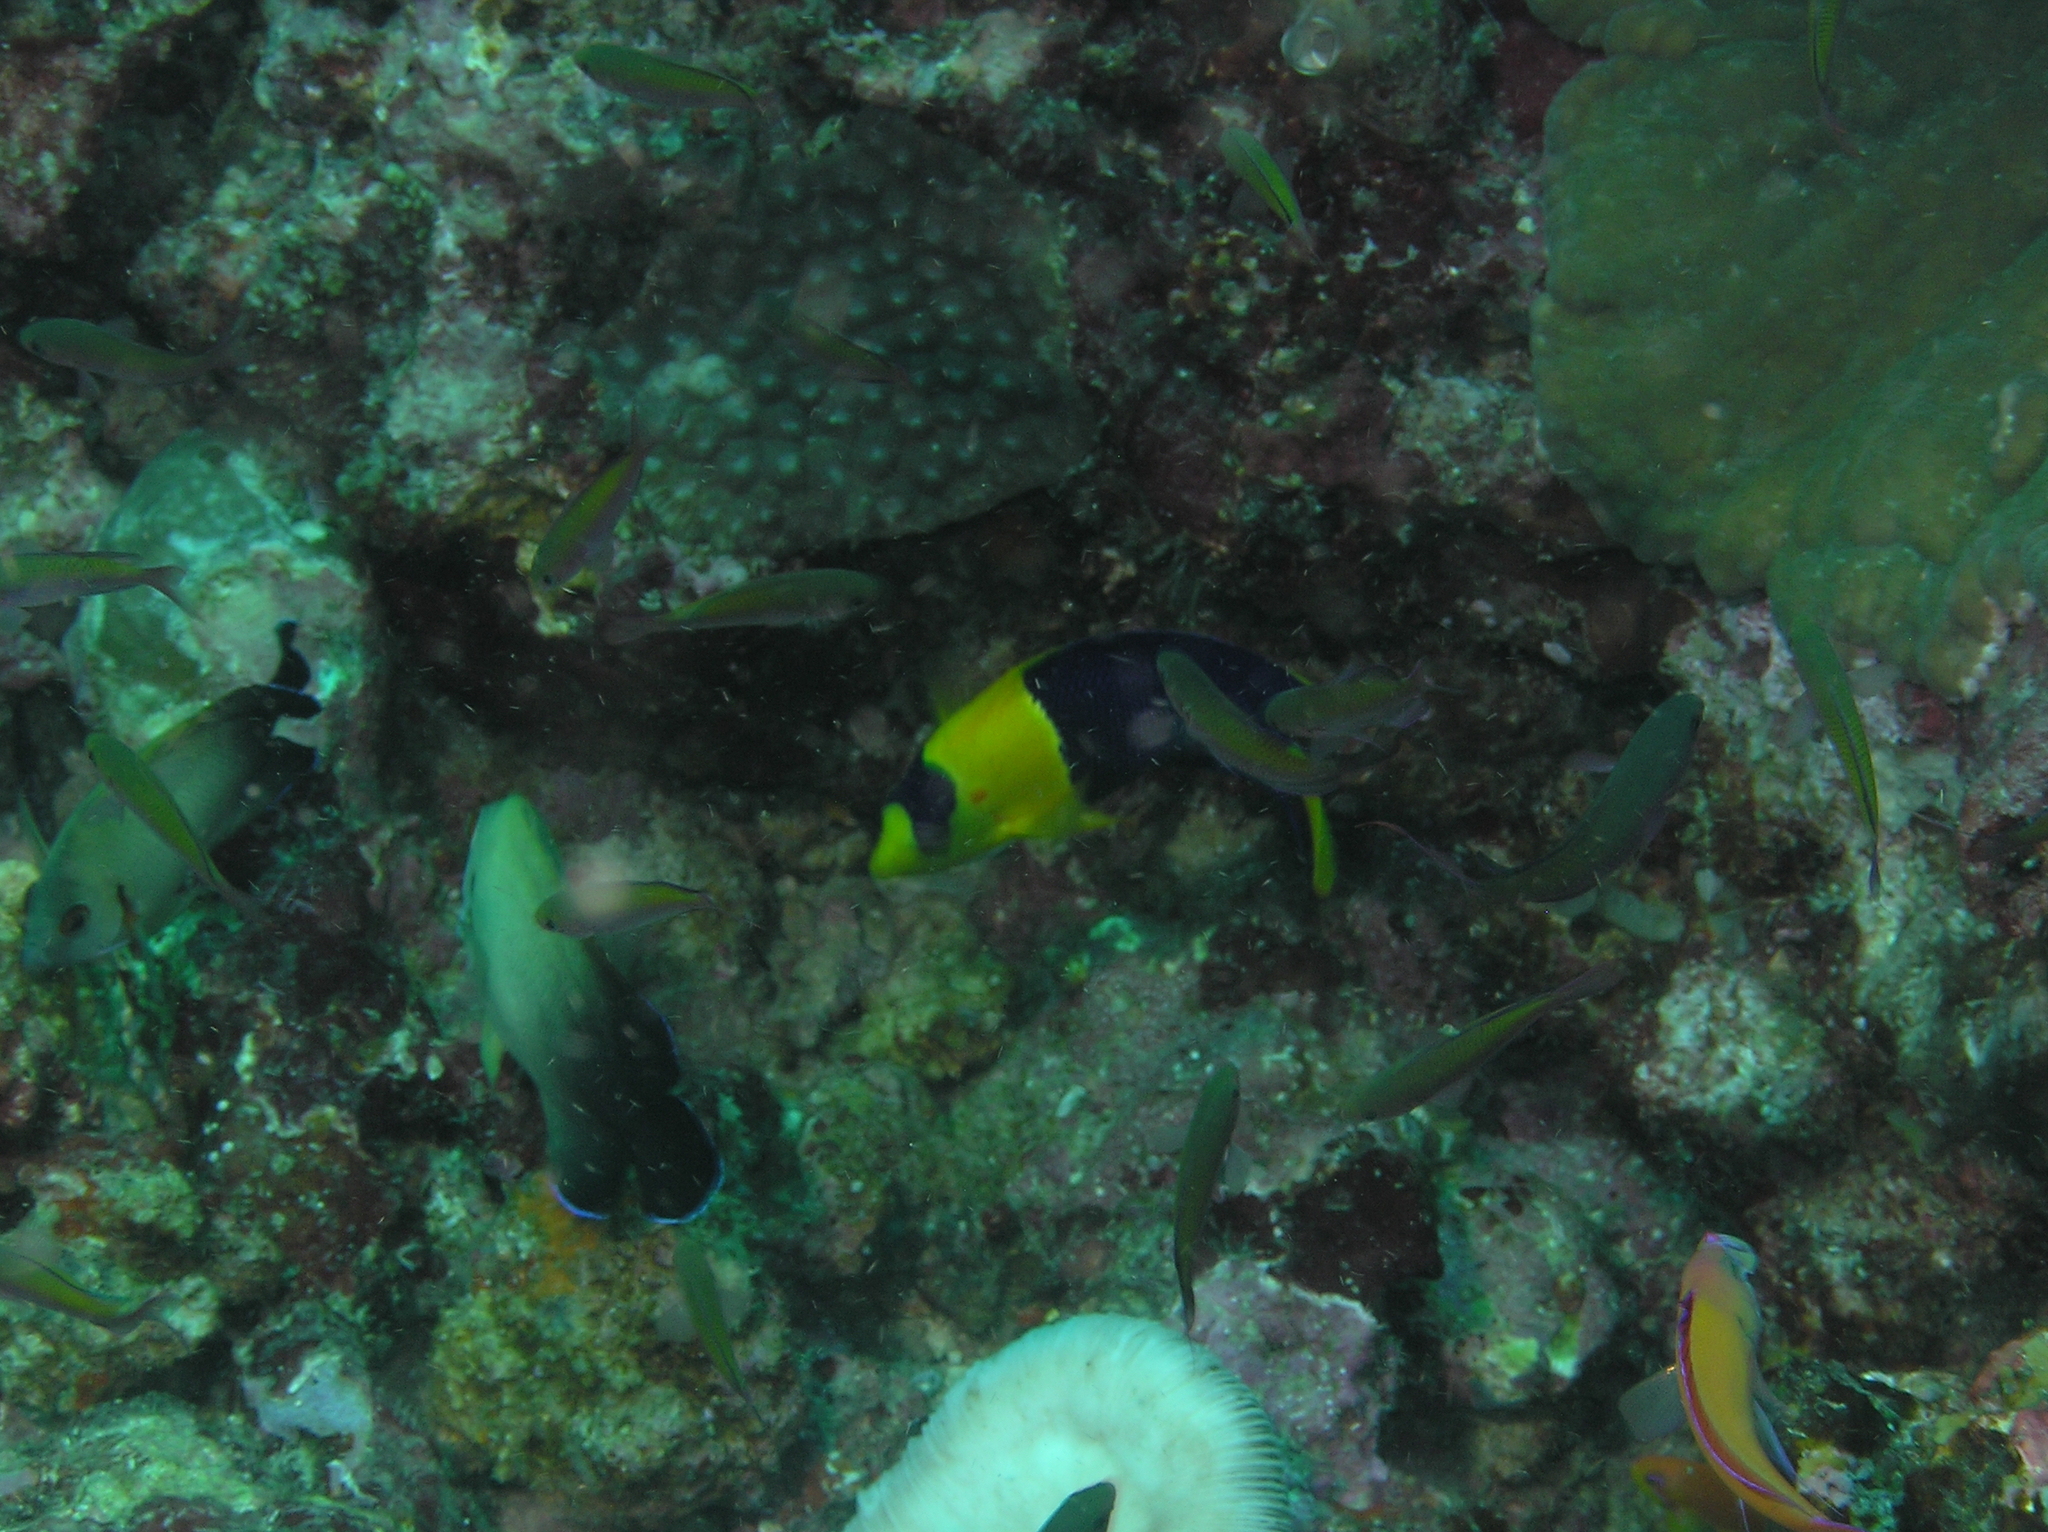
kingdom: Animalia
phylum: Chordata
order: Perciformes
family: Pomacanthidae
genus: Centropyge
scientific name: Centropyge vrolikii
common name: Pearlscale angelfish
